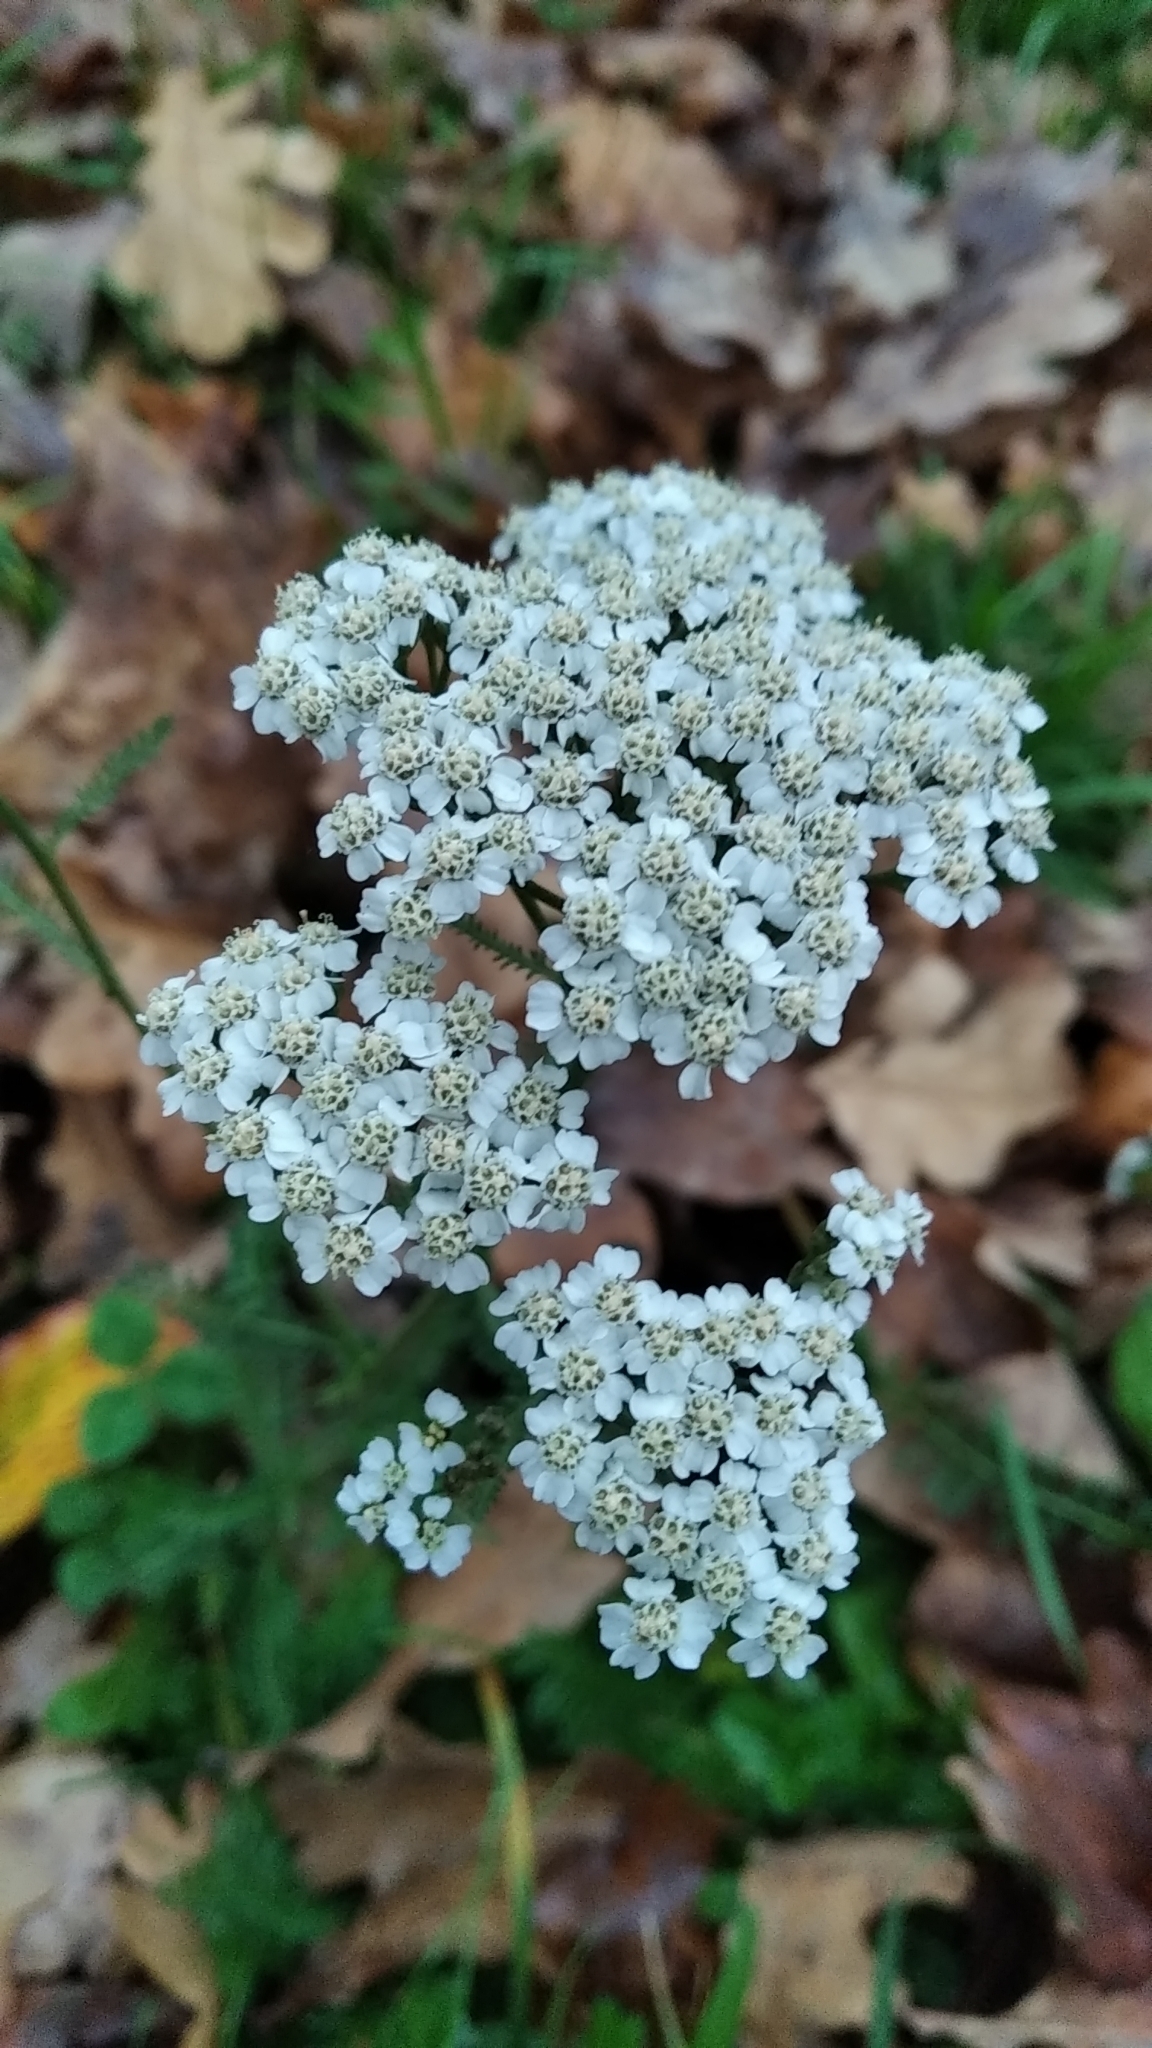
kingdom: Plantae
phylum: Tracheophyta
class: Magnoliopsida
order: Asterales
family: Asteraceae
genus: Achillea
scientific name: Achillea millefolium
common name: Yarrow
